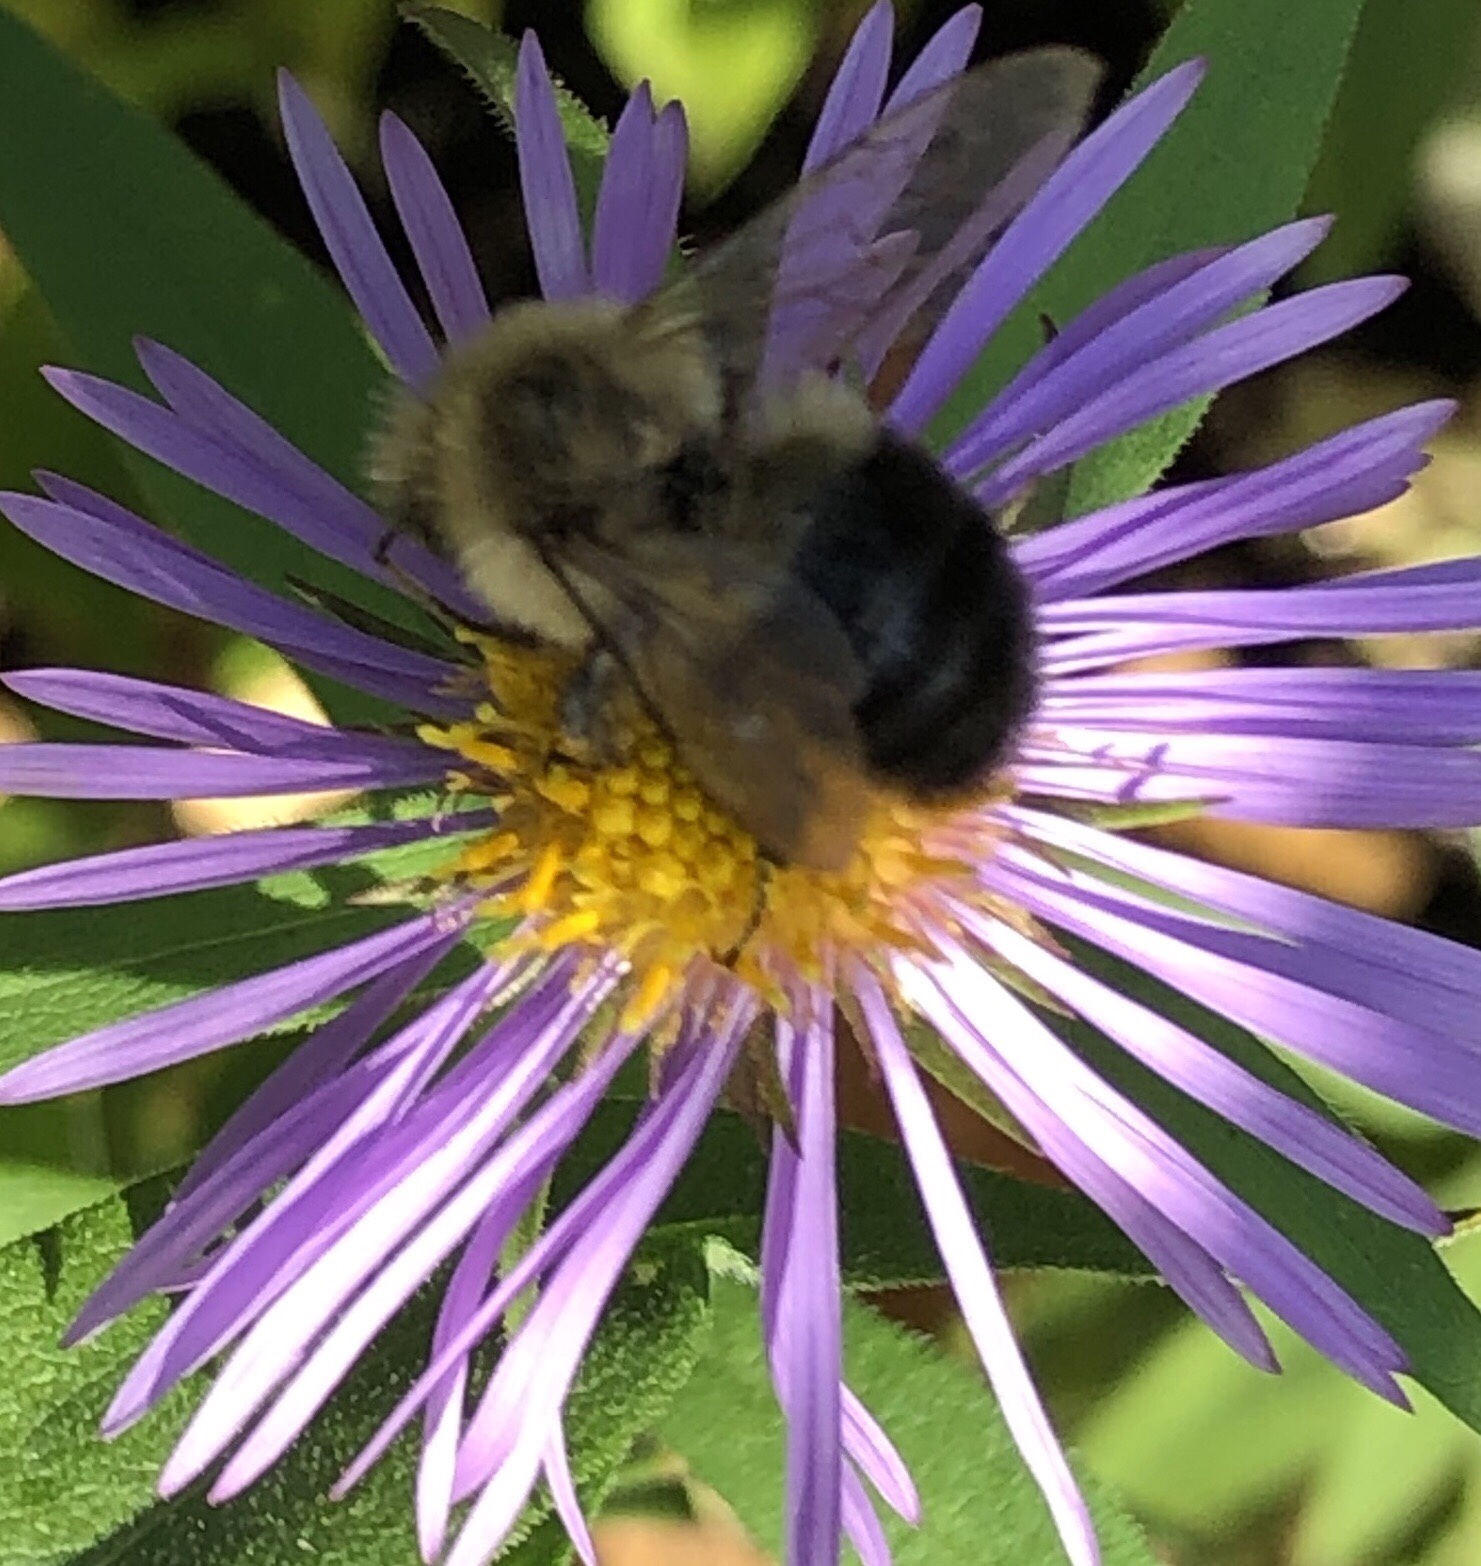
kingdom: Animalia
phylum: Arthropoda
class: Insecta
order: Hymenoptera
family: Apidae
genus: Bombus
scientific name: Bombus impatiens
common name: Common eastern bumble bee
